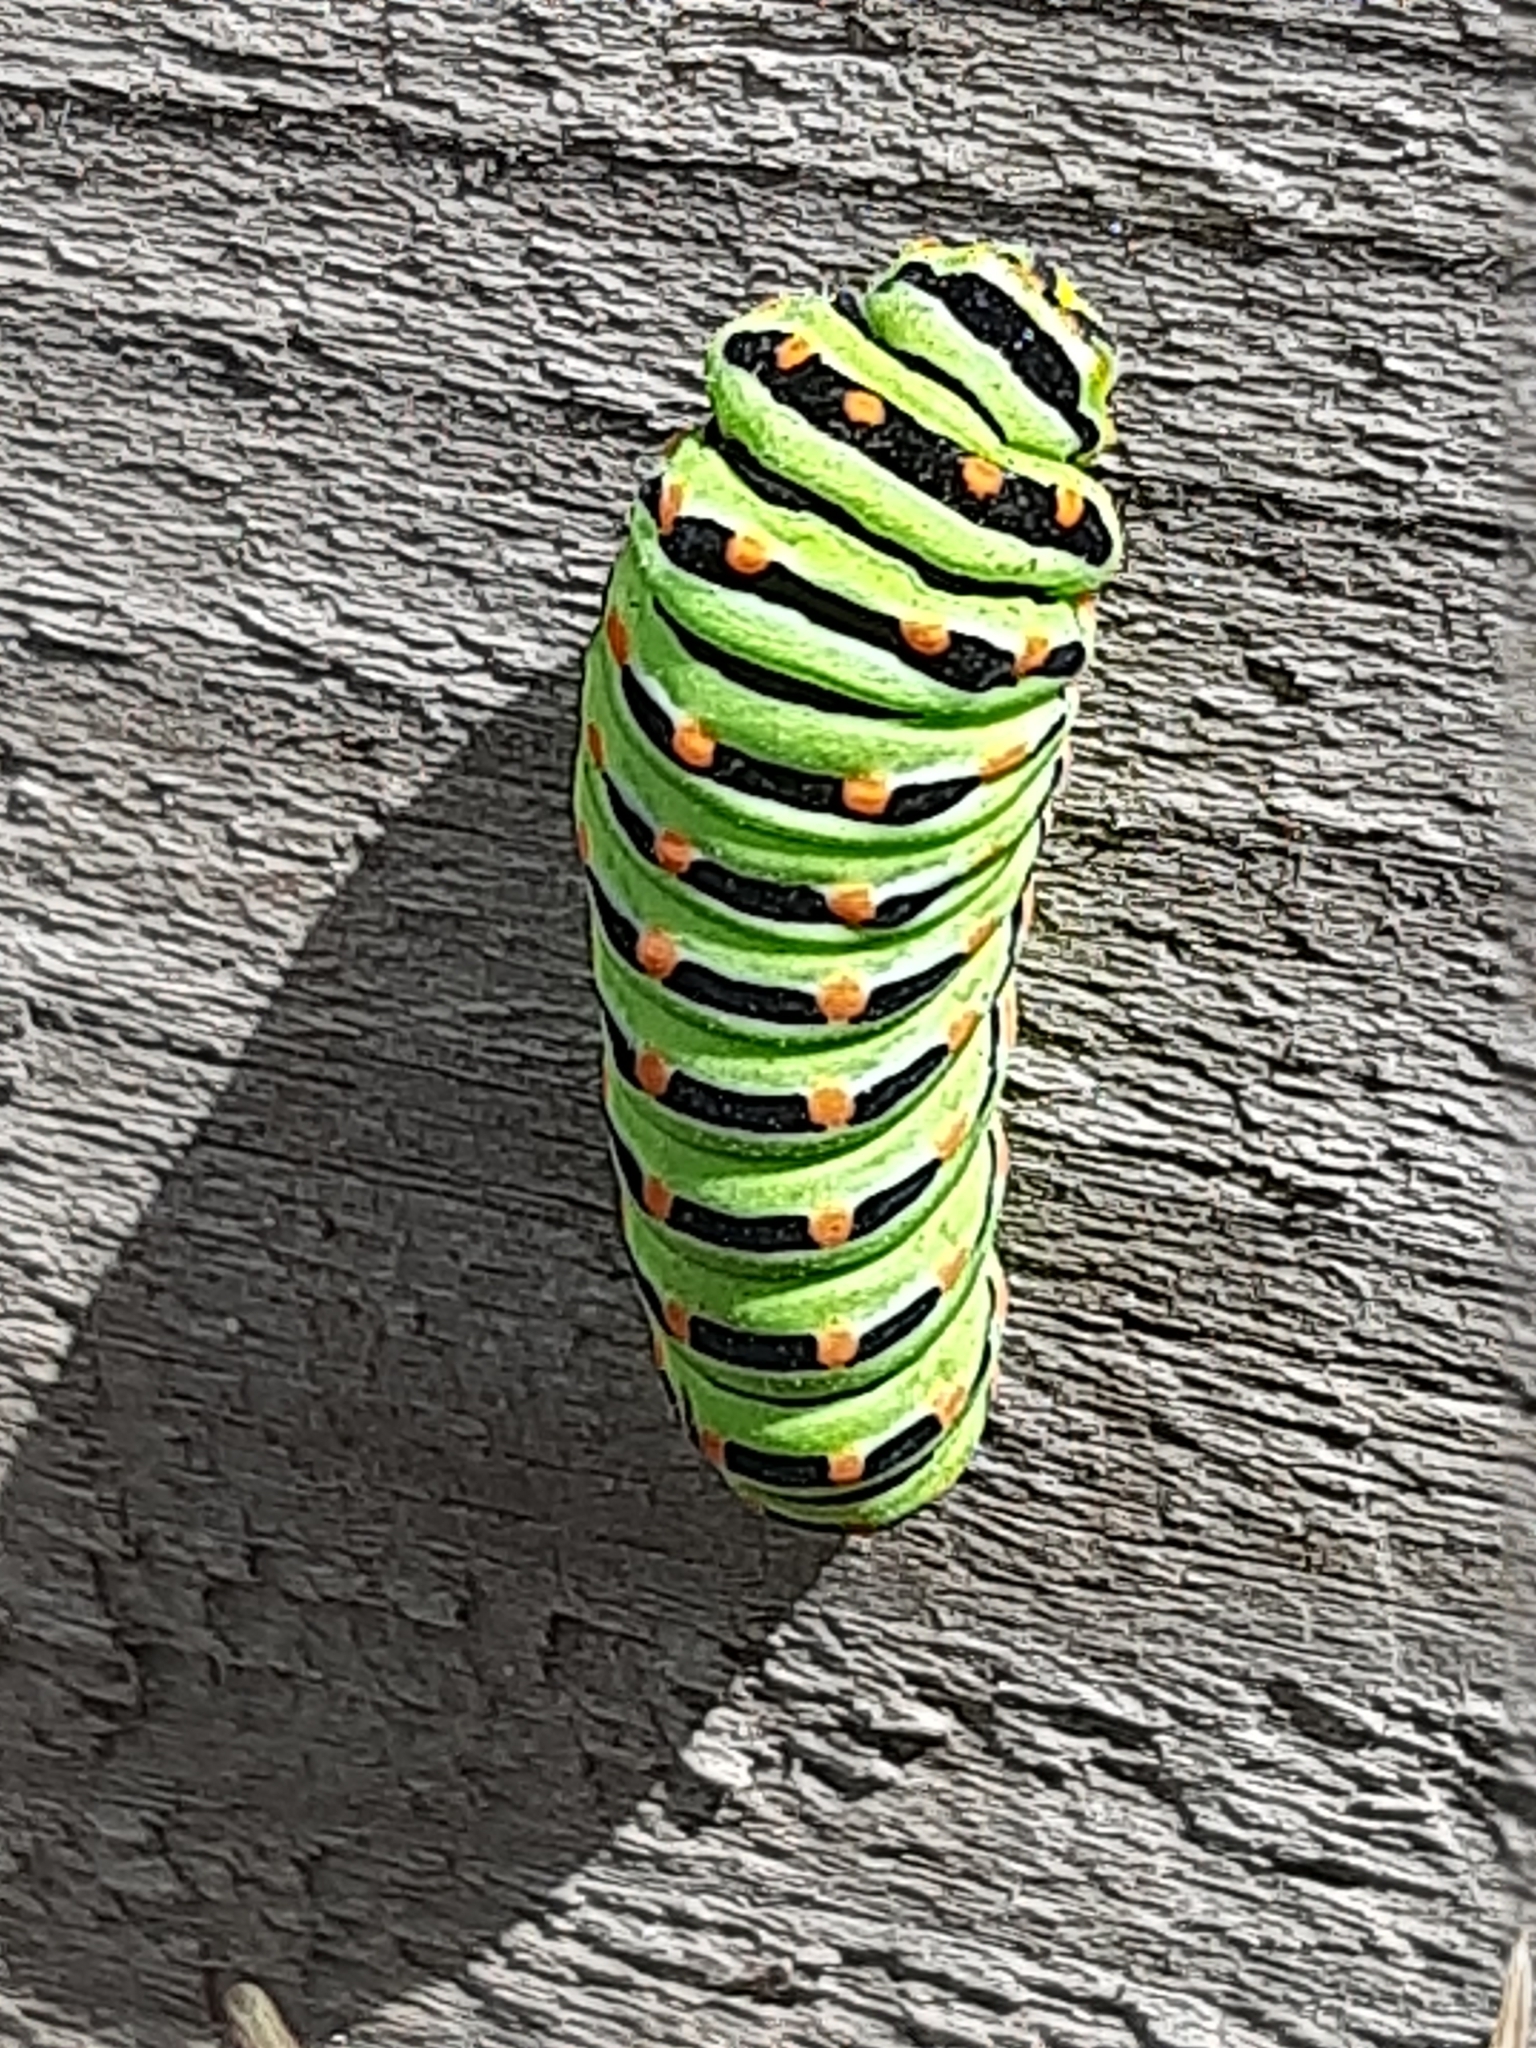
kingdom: Animalia
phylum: Arthropoda
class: Insecta
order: Lepidoptera
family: Papilionidae
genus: Papilio
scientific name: Papilio machaon
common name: Swallowtail
